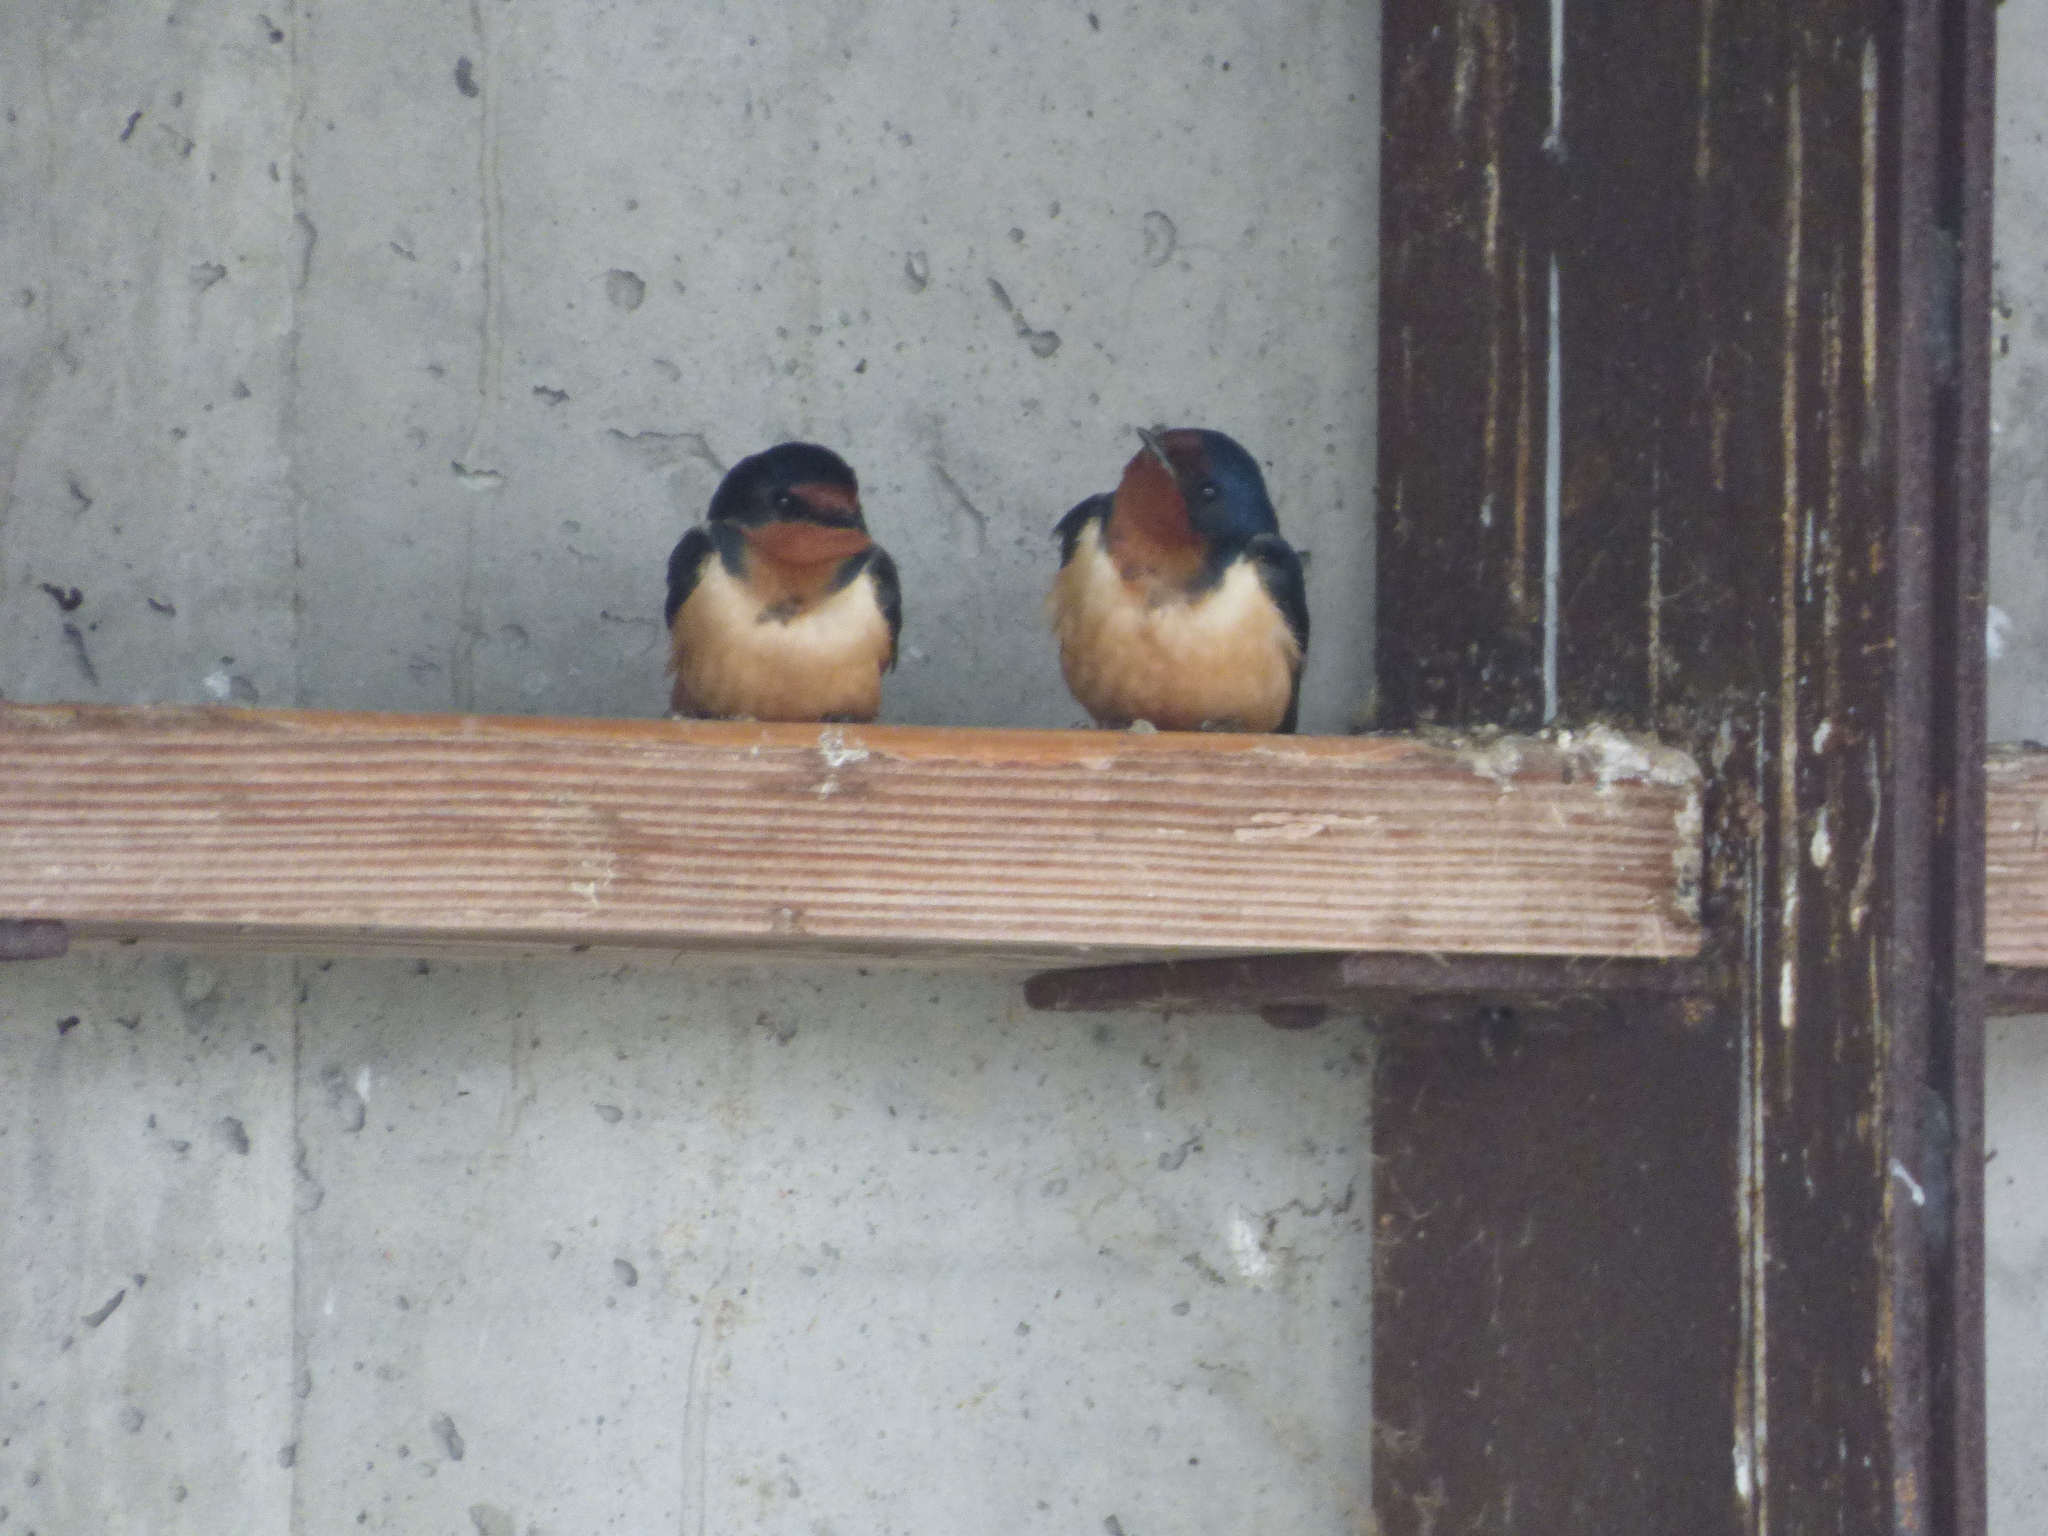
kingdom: Animalia
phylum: Chordata
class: Aves
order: Passeriformes
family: Hirundinidae
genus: Hirundo
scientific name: Hirundo rustica
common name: Barn swallow
